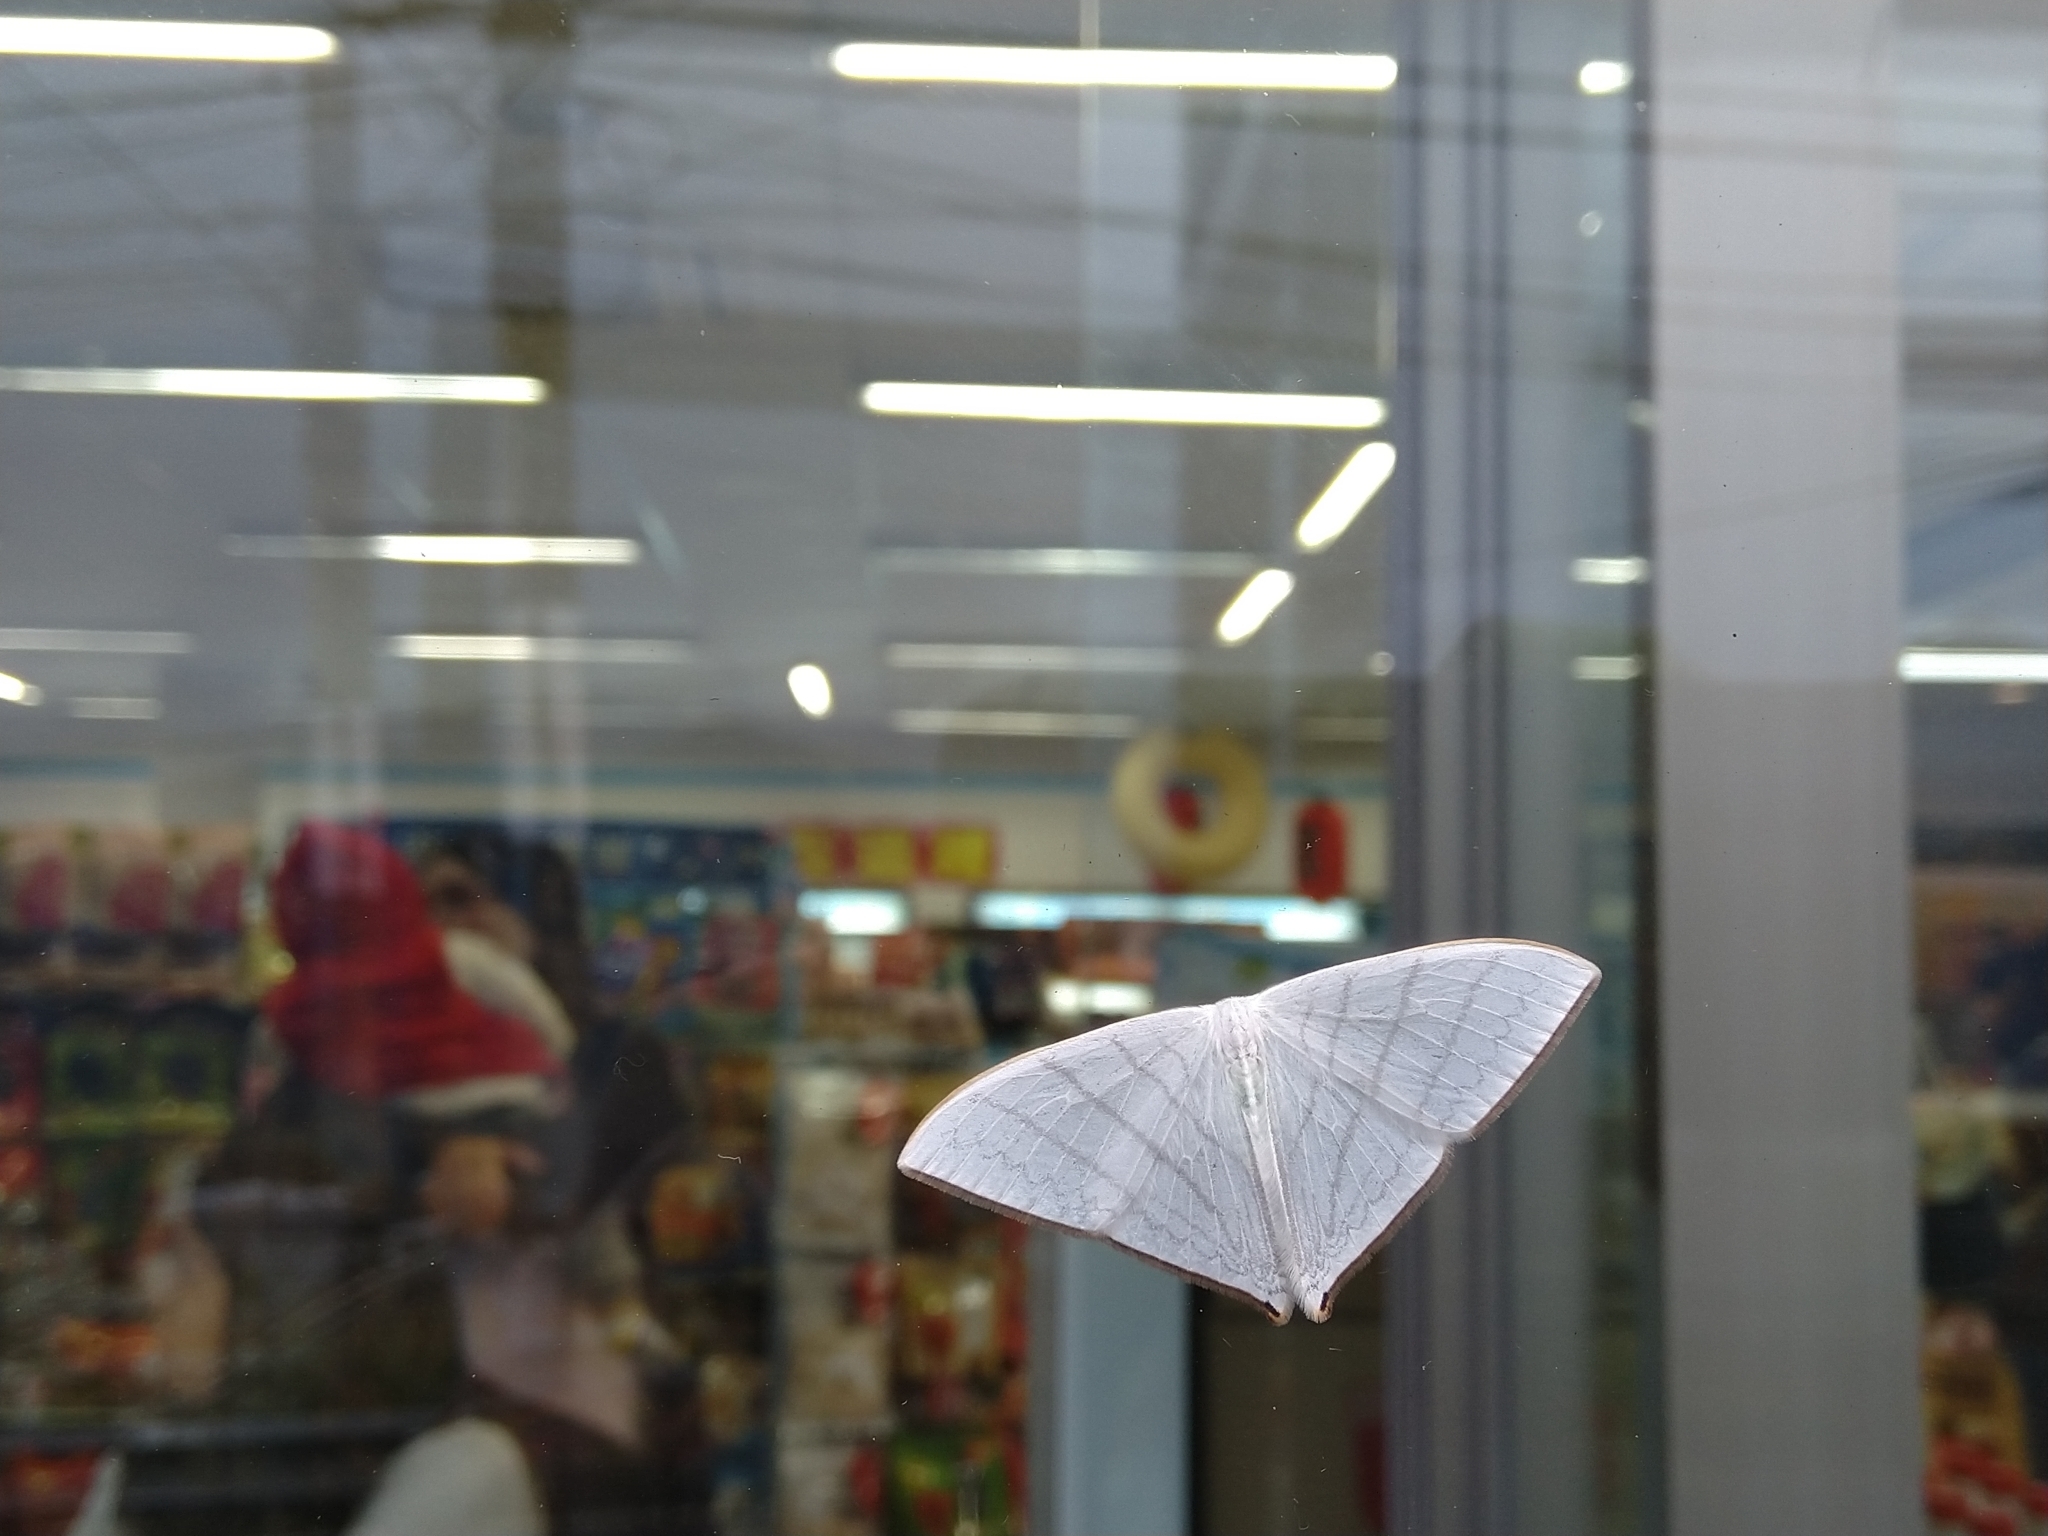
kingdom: Animalia
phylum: Arthropoda
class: Insecta
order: Lepidoptera
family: Drepanidae
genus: Ditrigona
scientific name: Ditrigona triangularia
